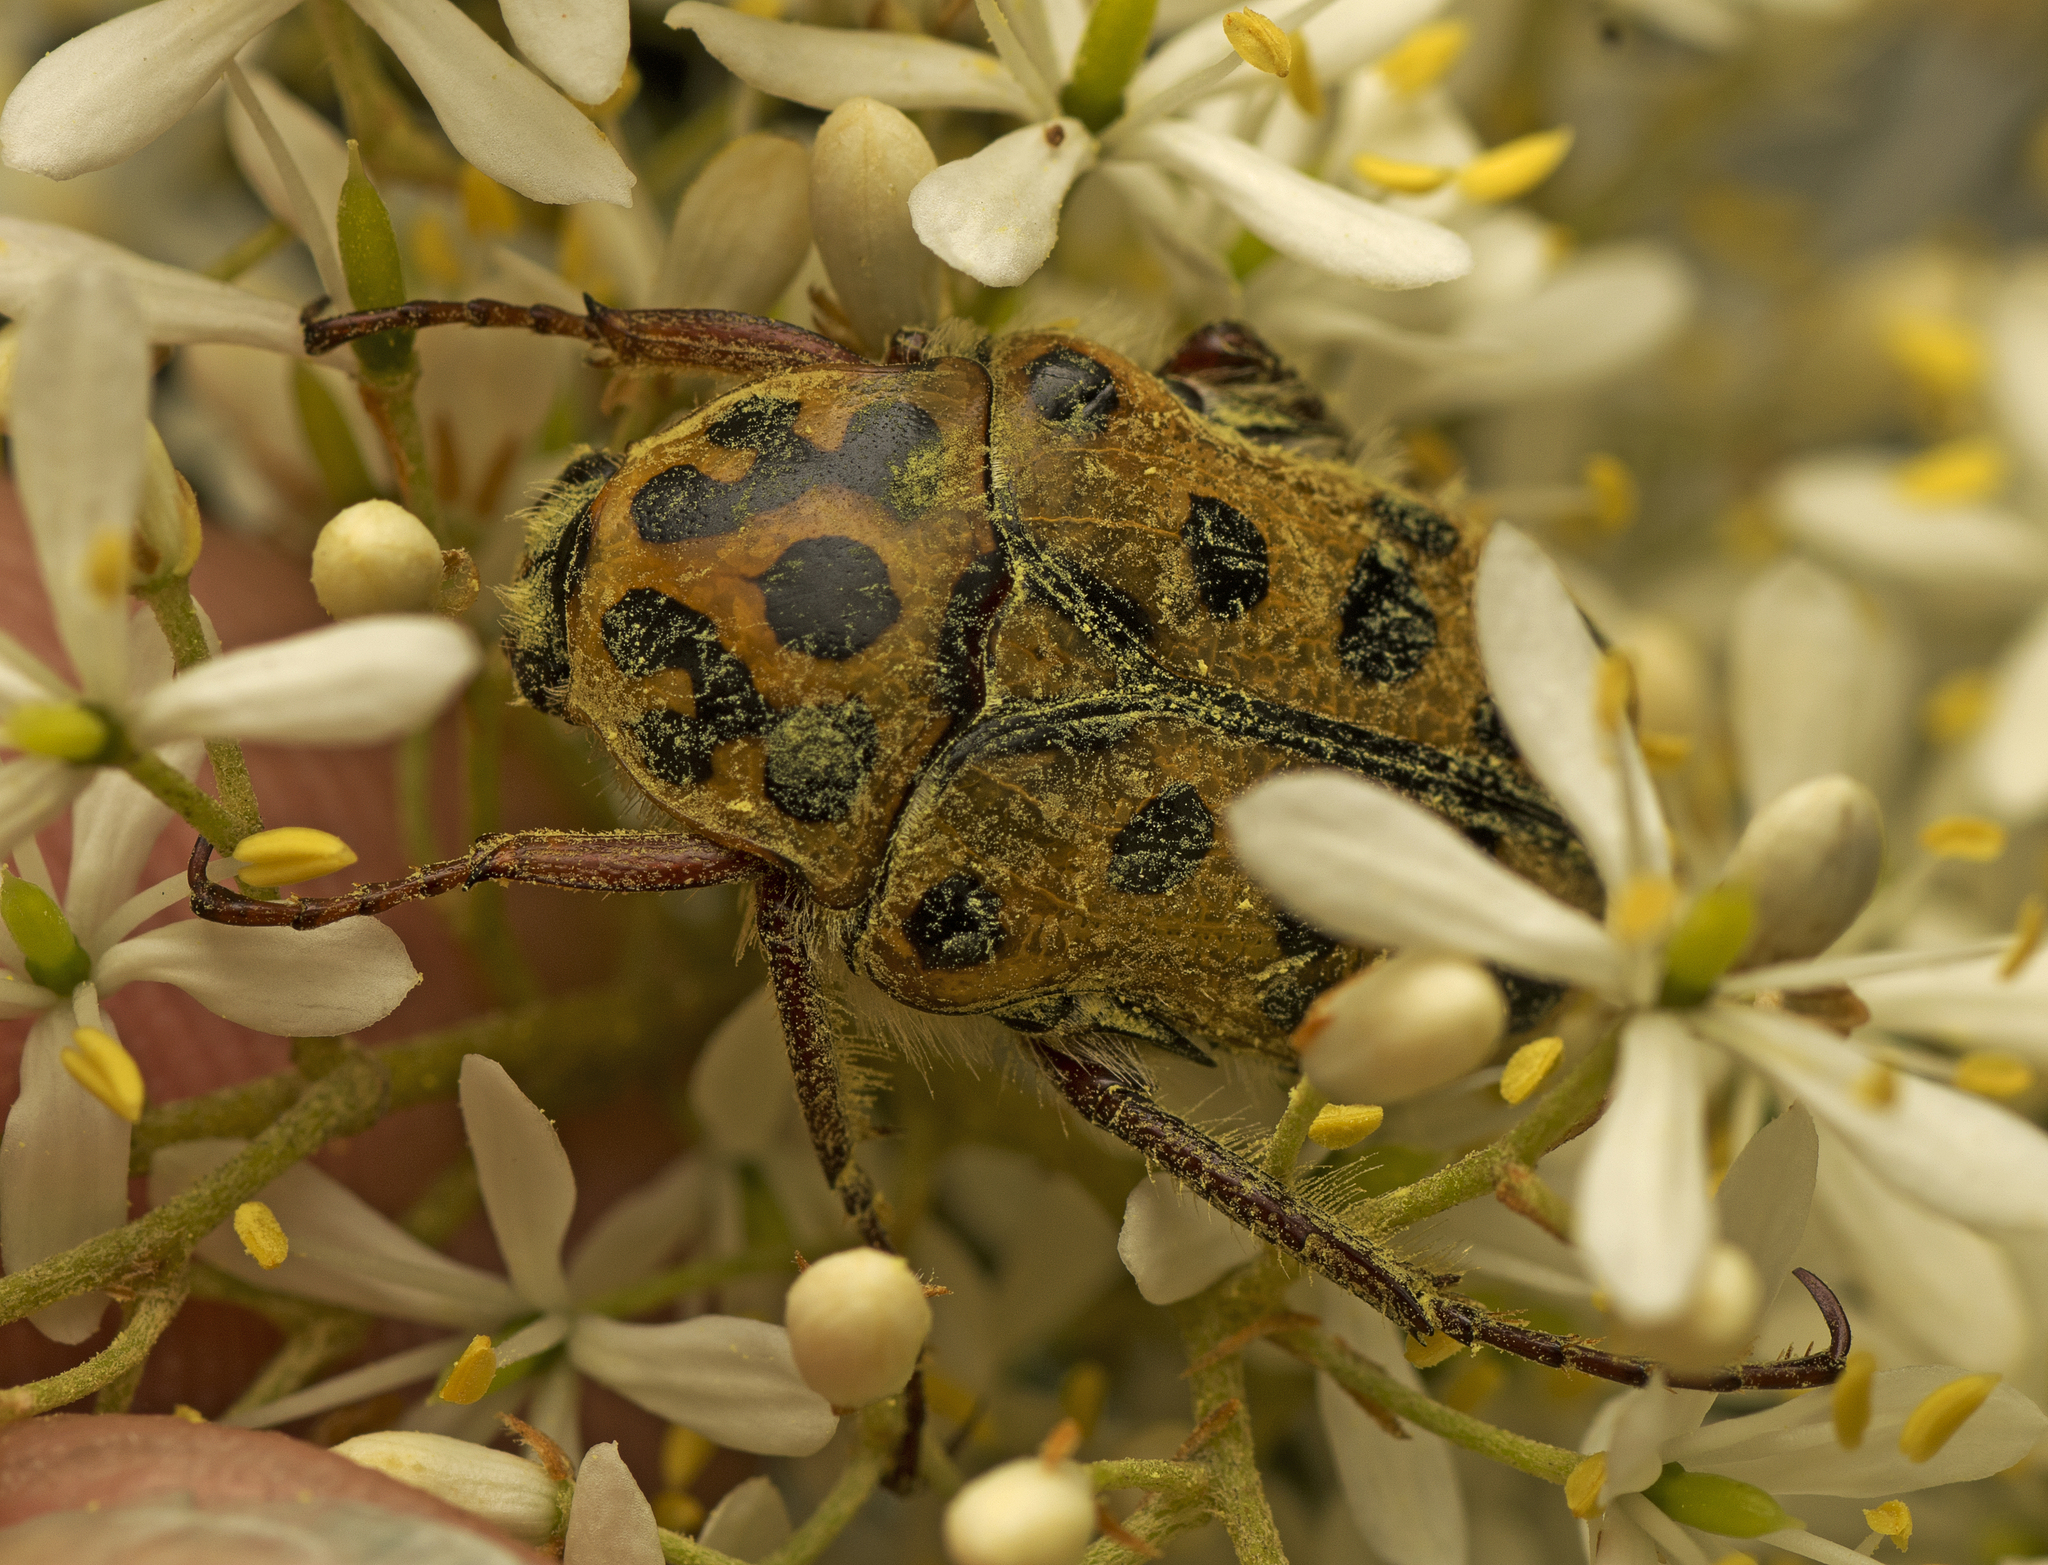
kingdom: Animalia
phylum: Arthropoda
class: Insecta
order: Coleoptera
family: Scarabaeidae
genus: Neorrhina
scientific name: Neorrhina punctatum
